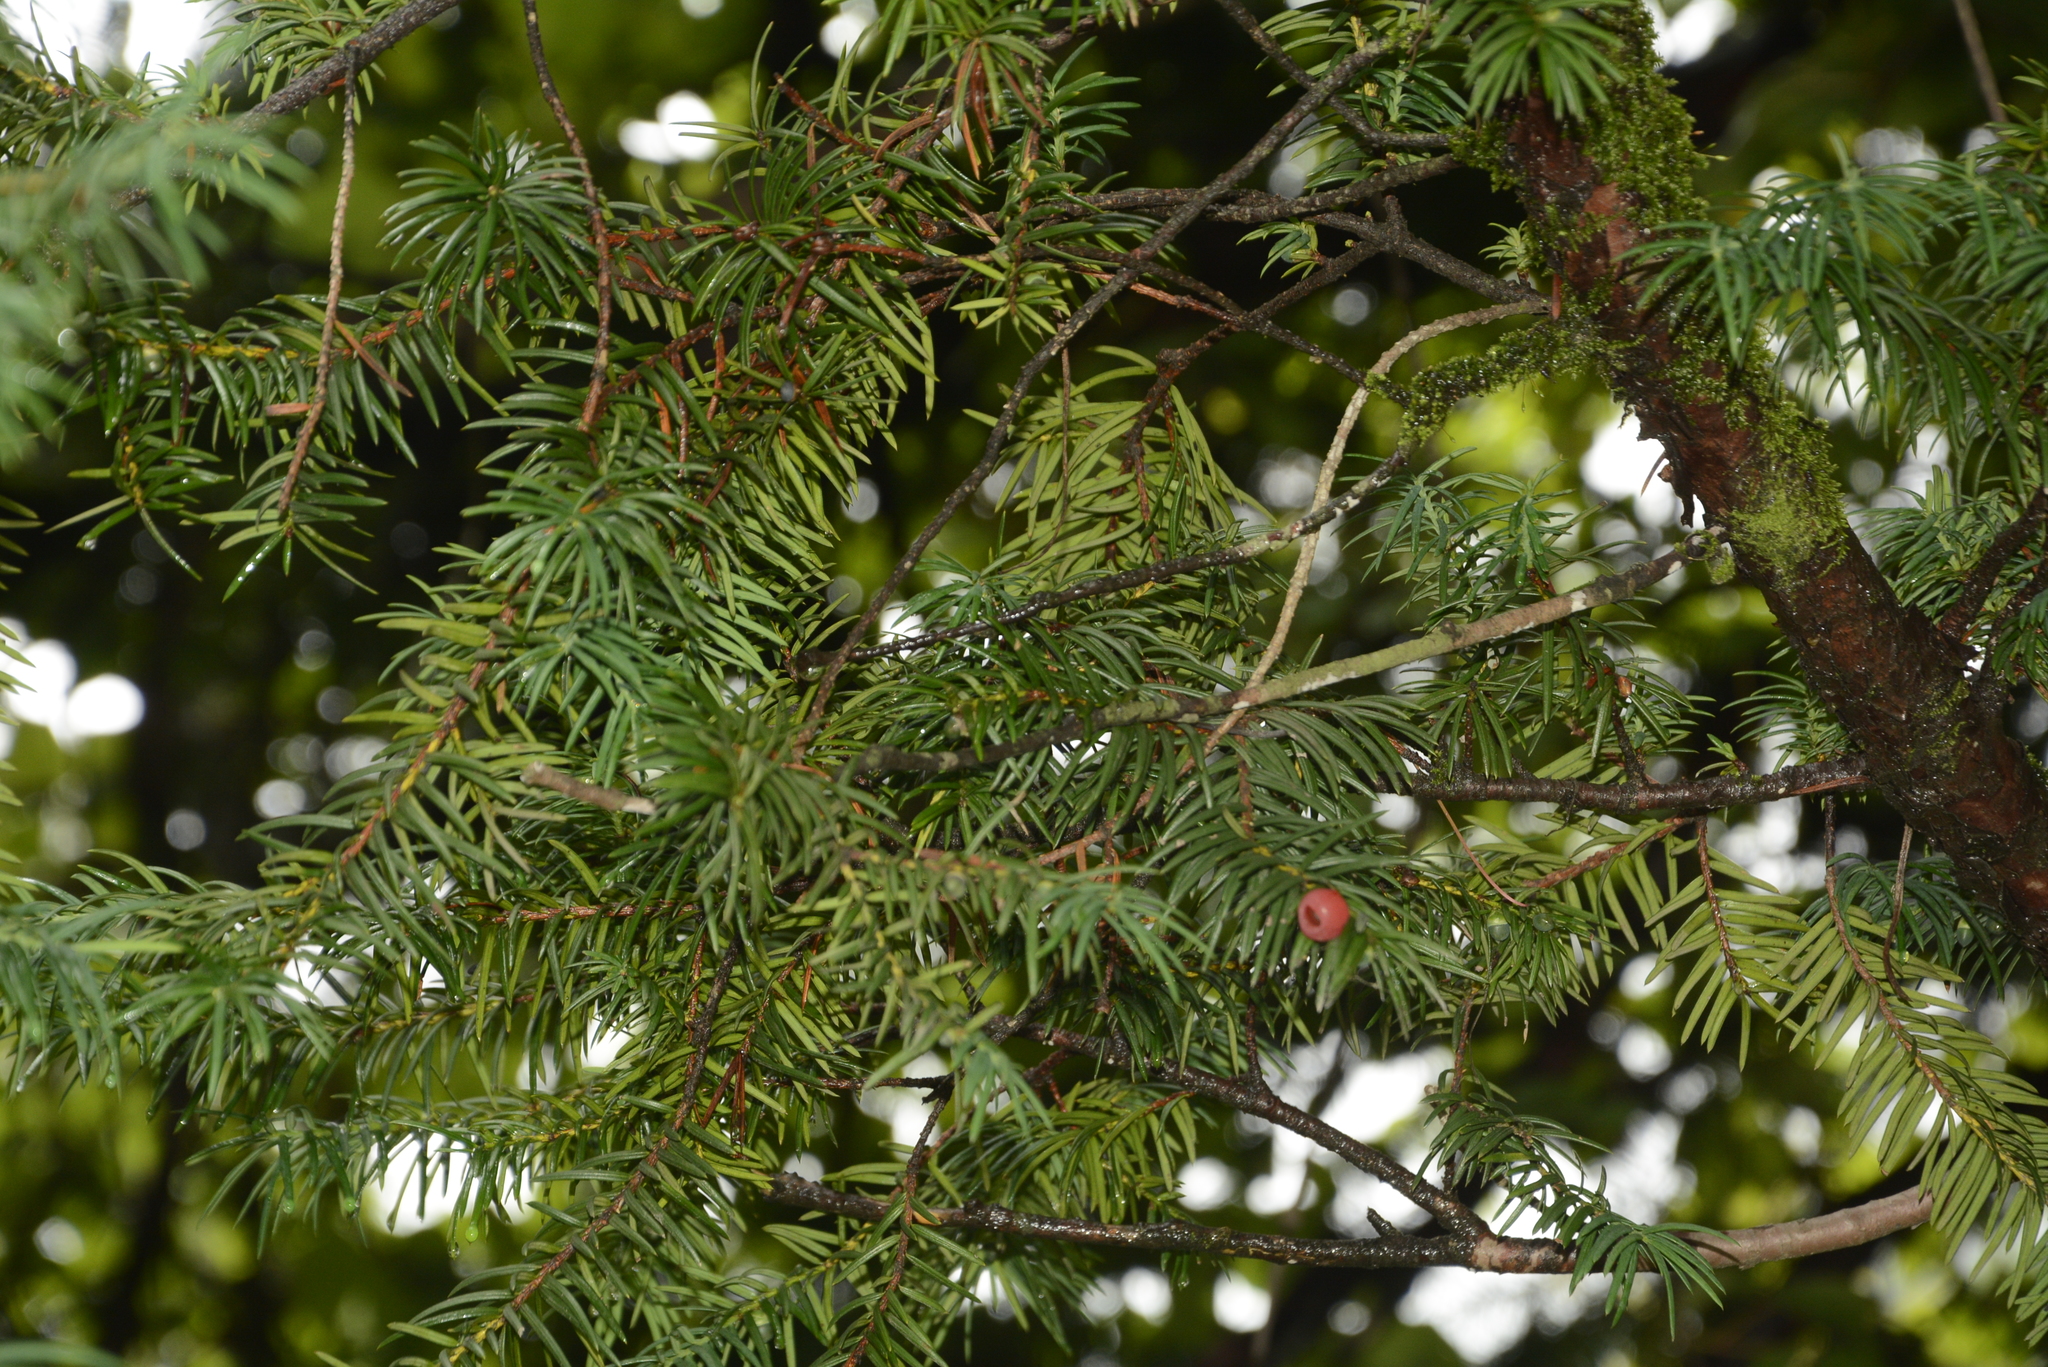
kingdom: Plantae
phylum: Tracheophyta
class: Pinopsida
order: Pinales
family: Taxaceae
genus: Taxus
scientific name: Taxus wallichiana
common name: Himalayan yew
